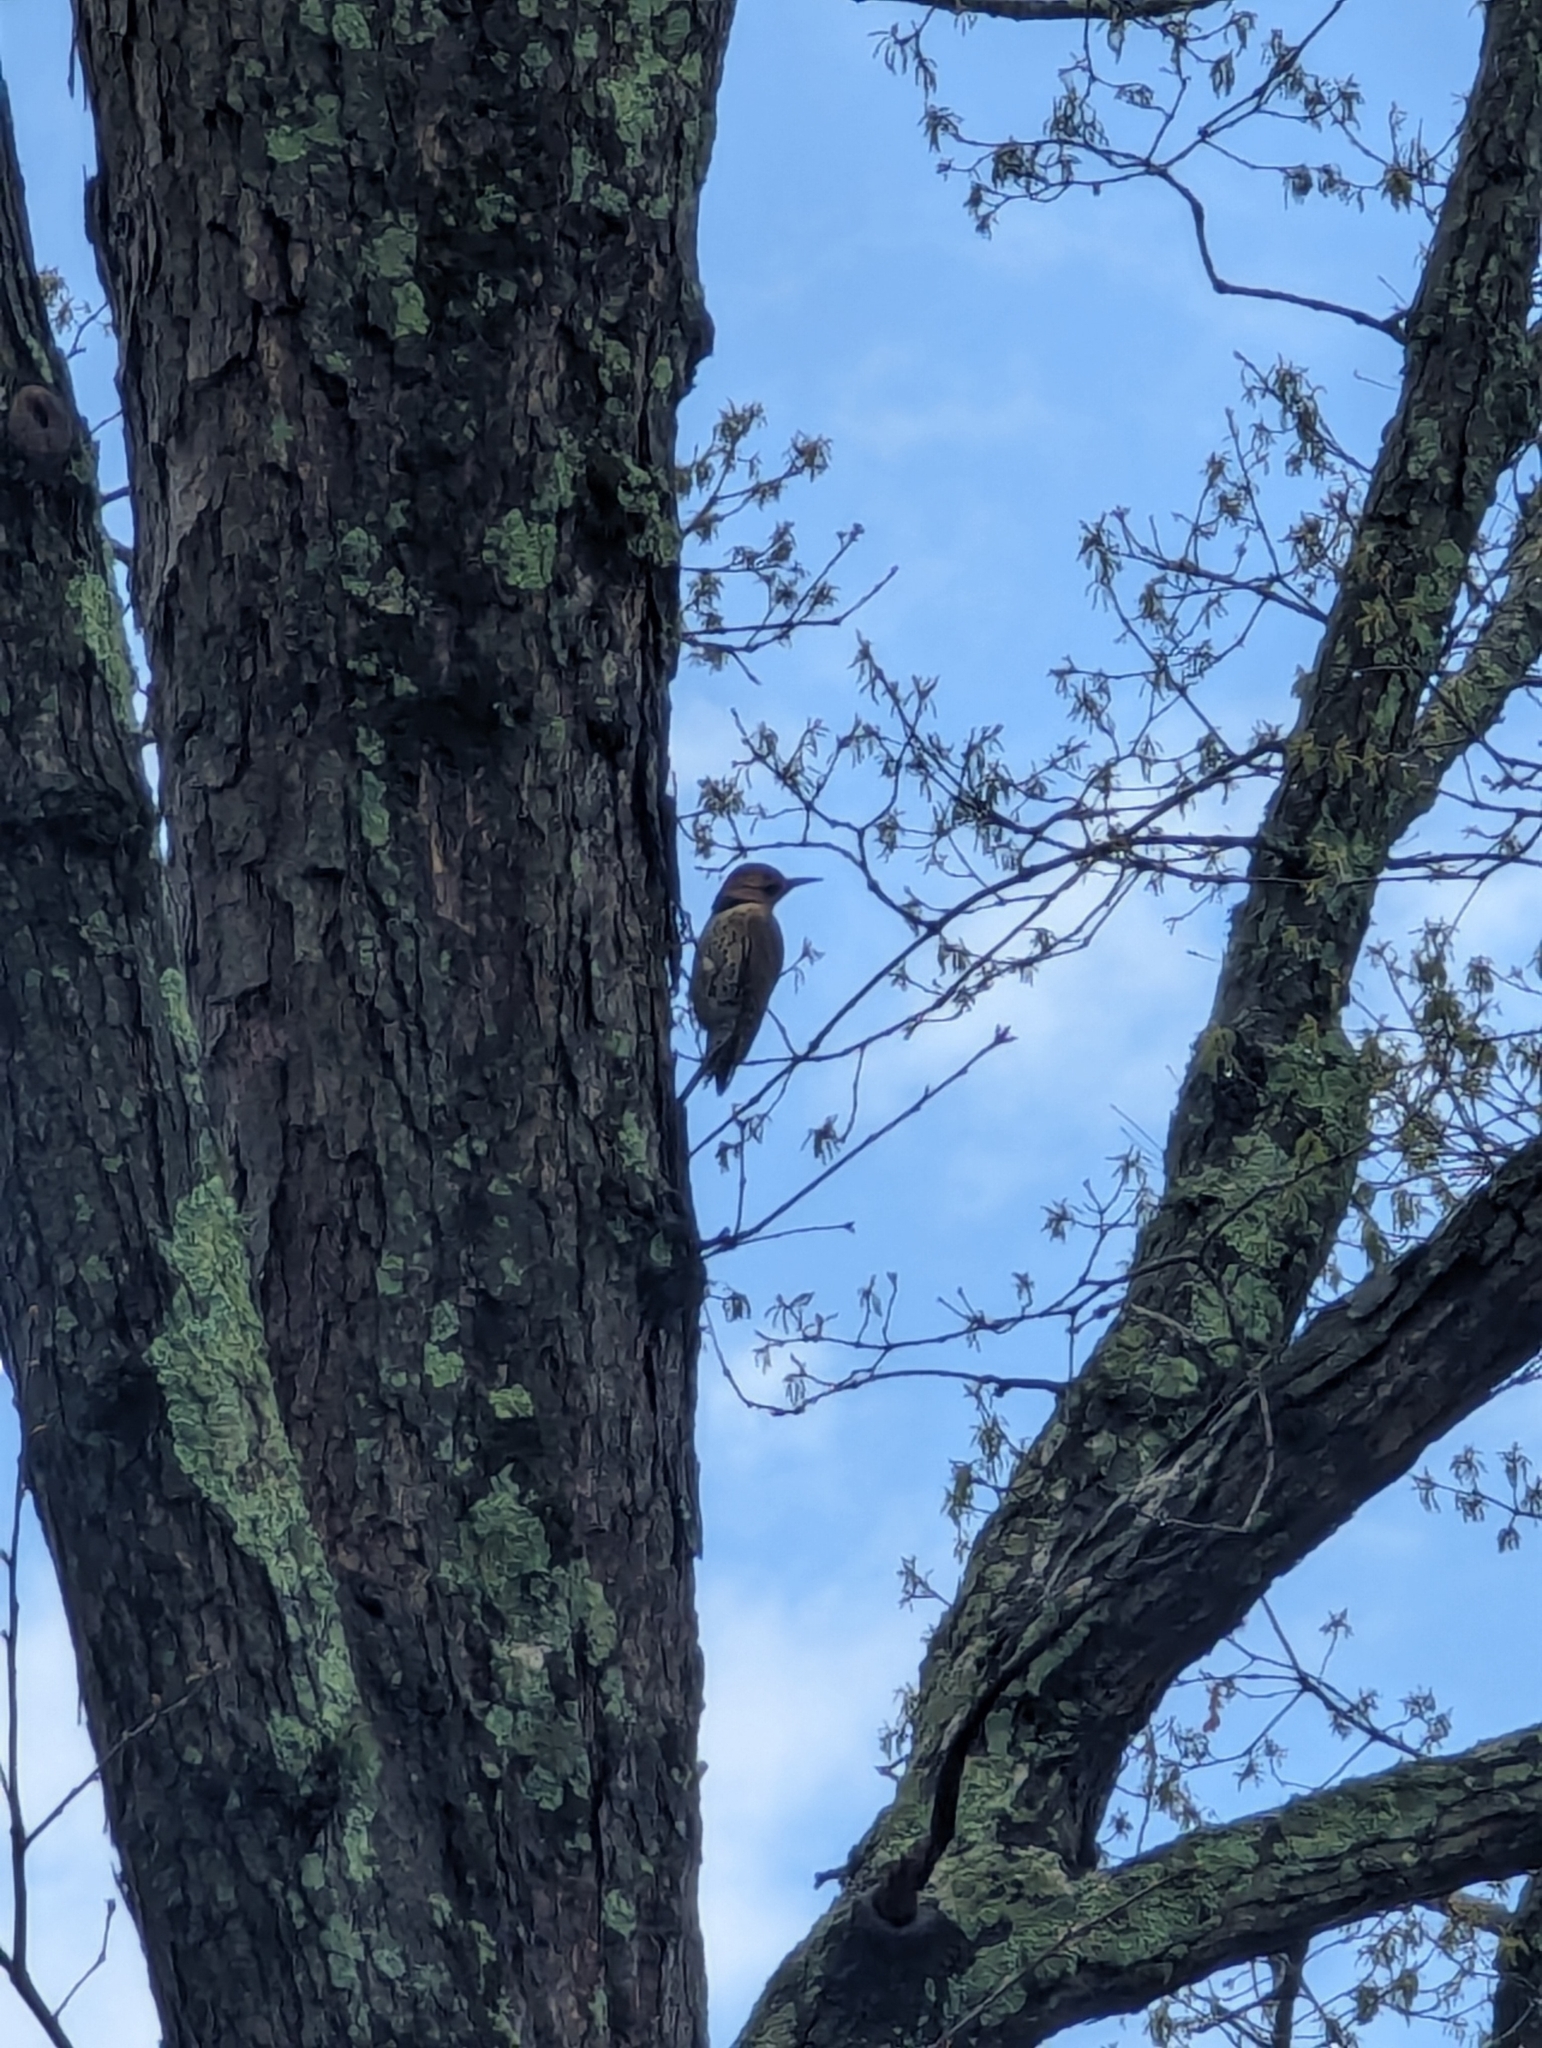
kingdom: Animalia
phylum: Chordata
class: Aves
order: Piciformes
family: Picidae
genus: Colaptes
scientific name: Colaptes auratus
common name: Northern flicker
